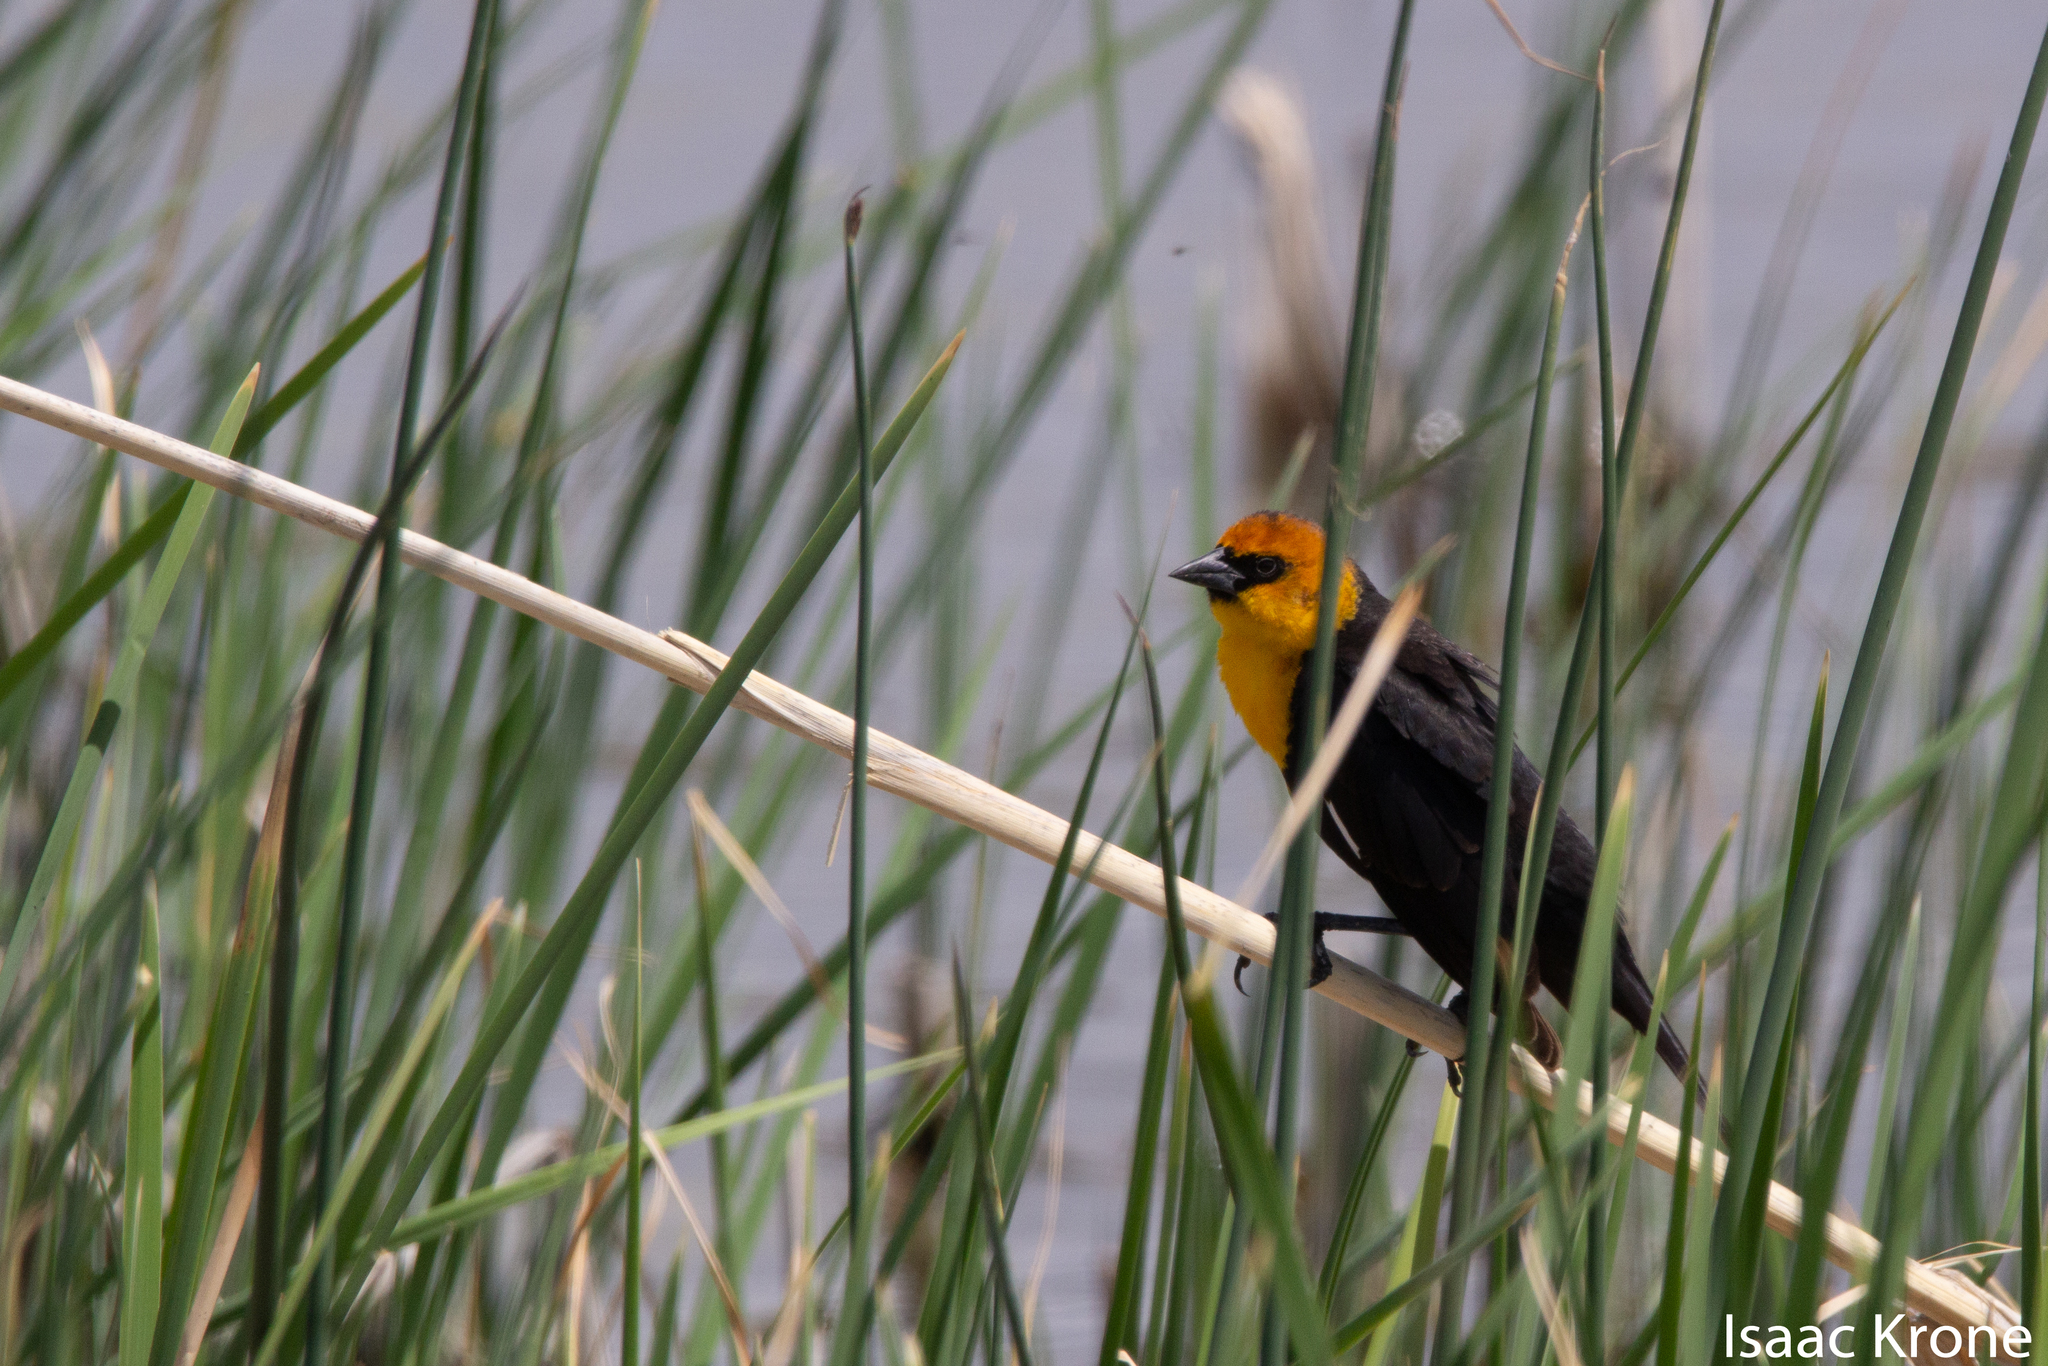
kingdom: Animalia
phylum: Chordata
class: Aves
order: Passeriformes
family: Icteridae
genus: Xanthocephalus
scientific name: Xanthocephalus xanthocephalus
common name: Yellow-headed blackbird
